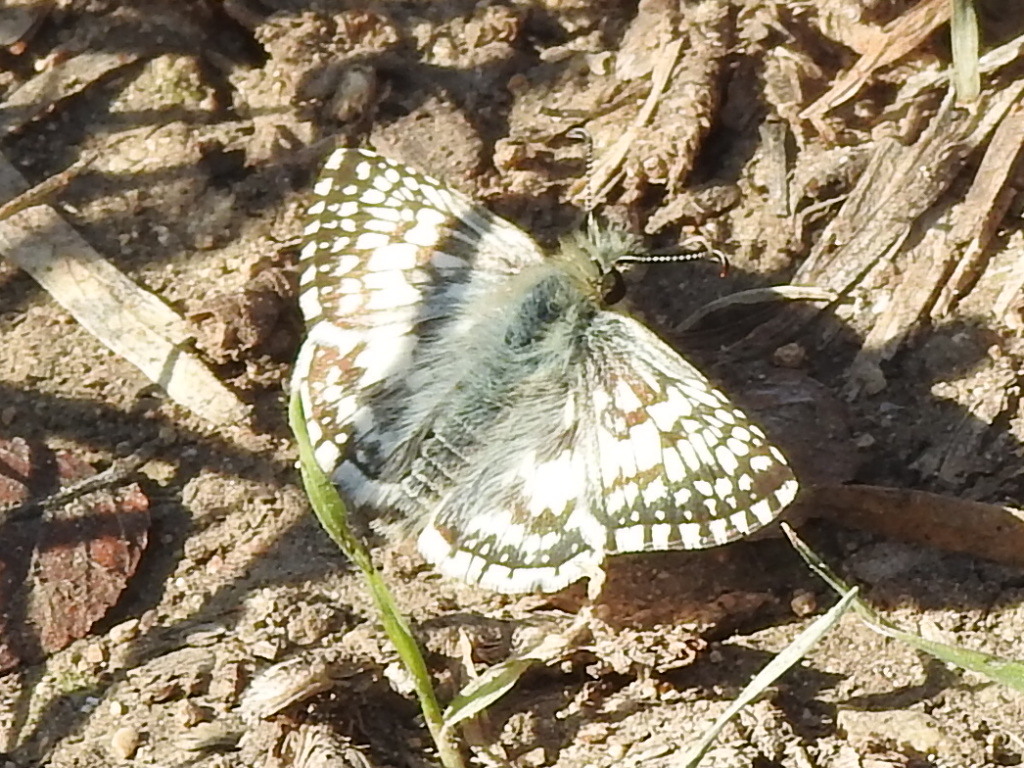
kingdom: Animalia
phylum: Arthropoda
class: Insecta
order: Lepidoptera
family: Hesperiidae
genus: Burnsius
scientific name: Burnsius
